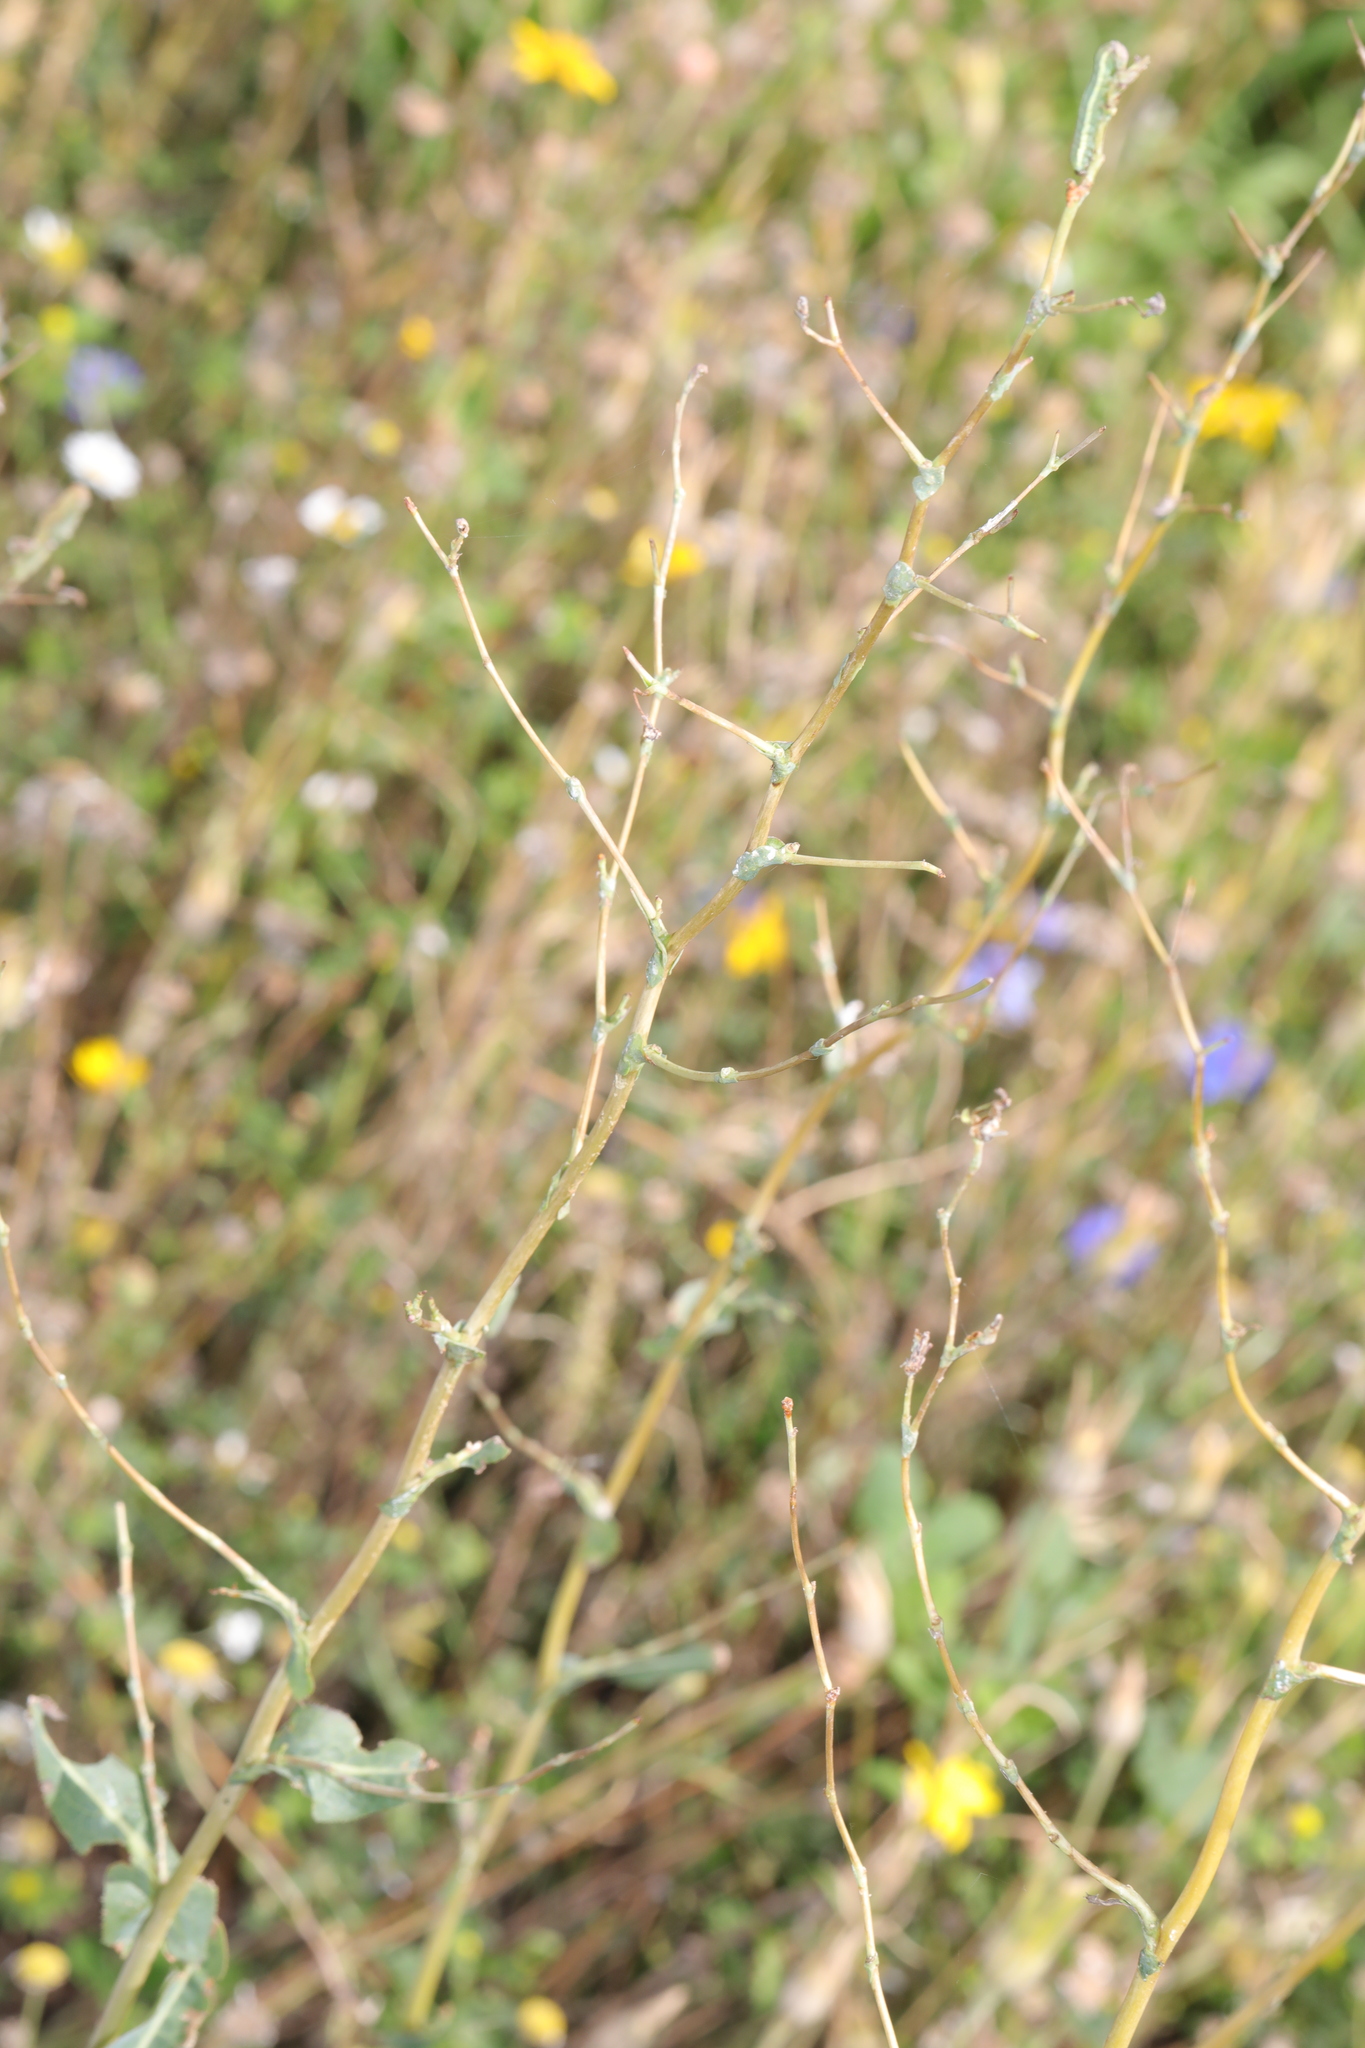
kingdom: Plantae
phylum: Tracheophyta
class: Magnoliopsida
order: Asterales
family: Asteraceae
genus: Lactuca
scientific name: Lactuca serriola
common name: Prickly lettuce
